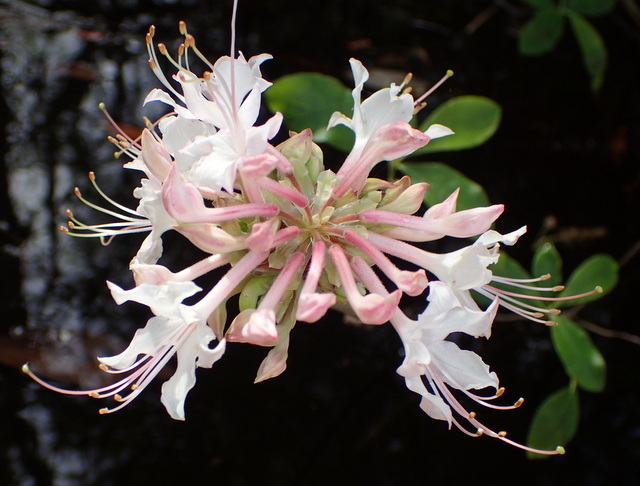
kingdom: Plantae
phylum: Tracheophyta
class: Magnoliopsida
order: Ericales
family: Ericaceae
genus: Rhododendron
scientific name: Rhododendron canescens
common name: Mountain azalea
